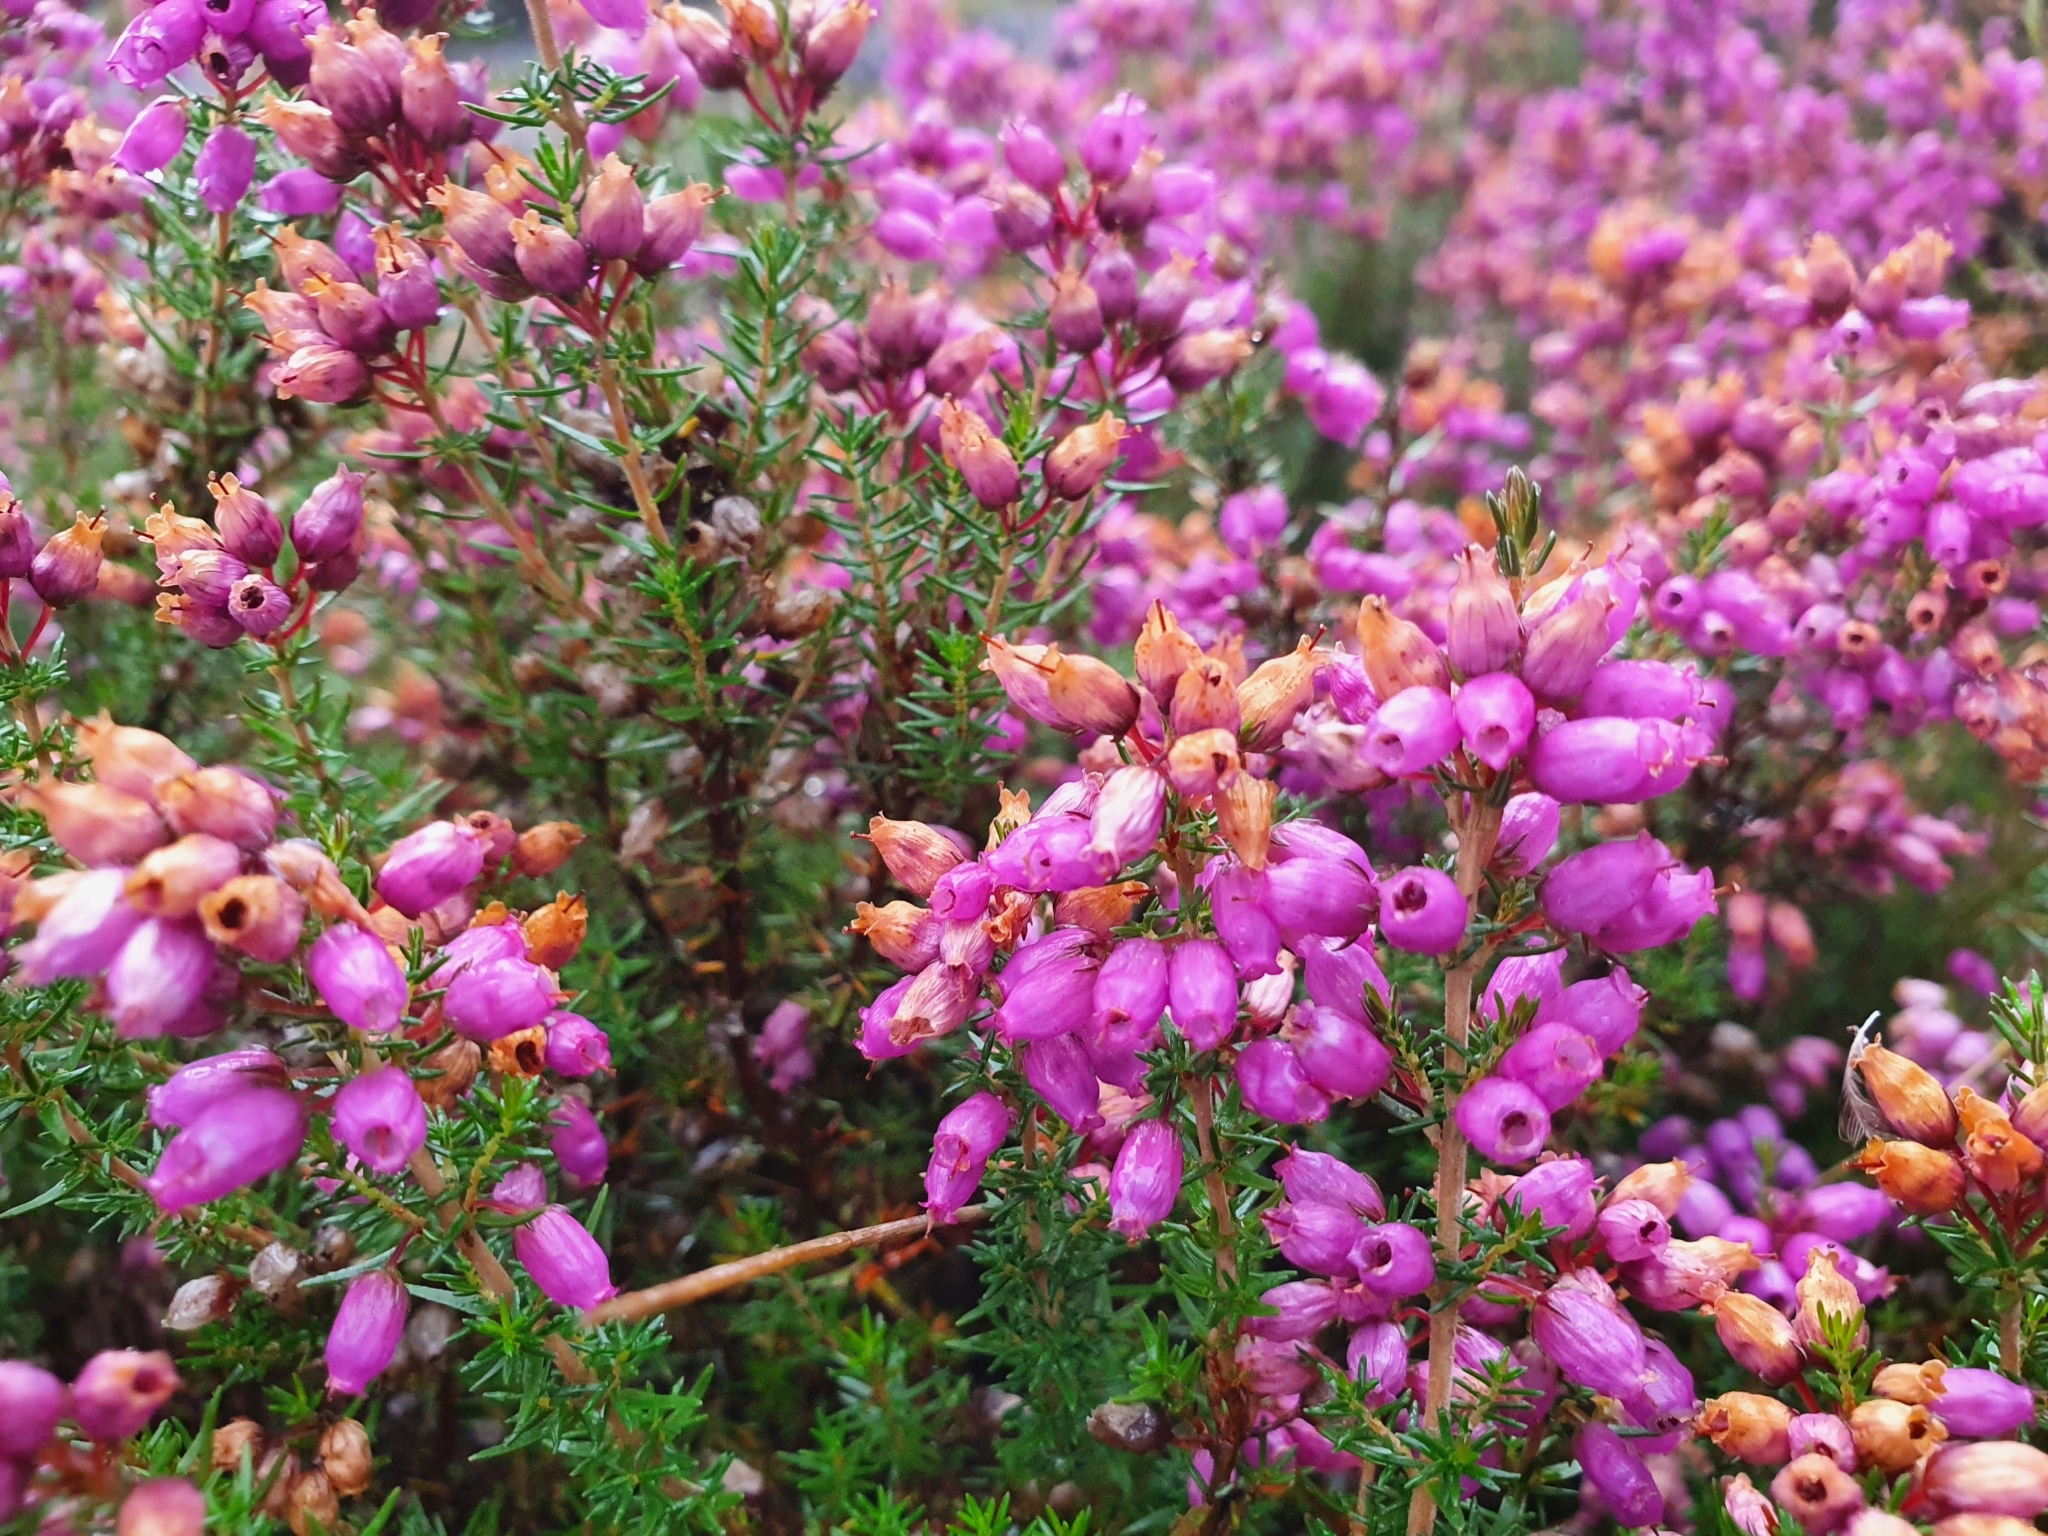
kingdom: Plantae
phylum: Tracheophyta
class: Magnoliopsida
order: Ericales
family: Ericaceae
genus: Erica
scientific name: Erica cinerea
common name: Bell heather
